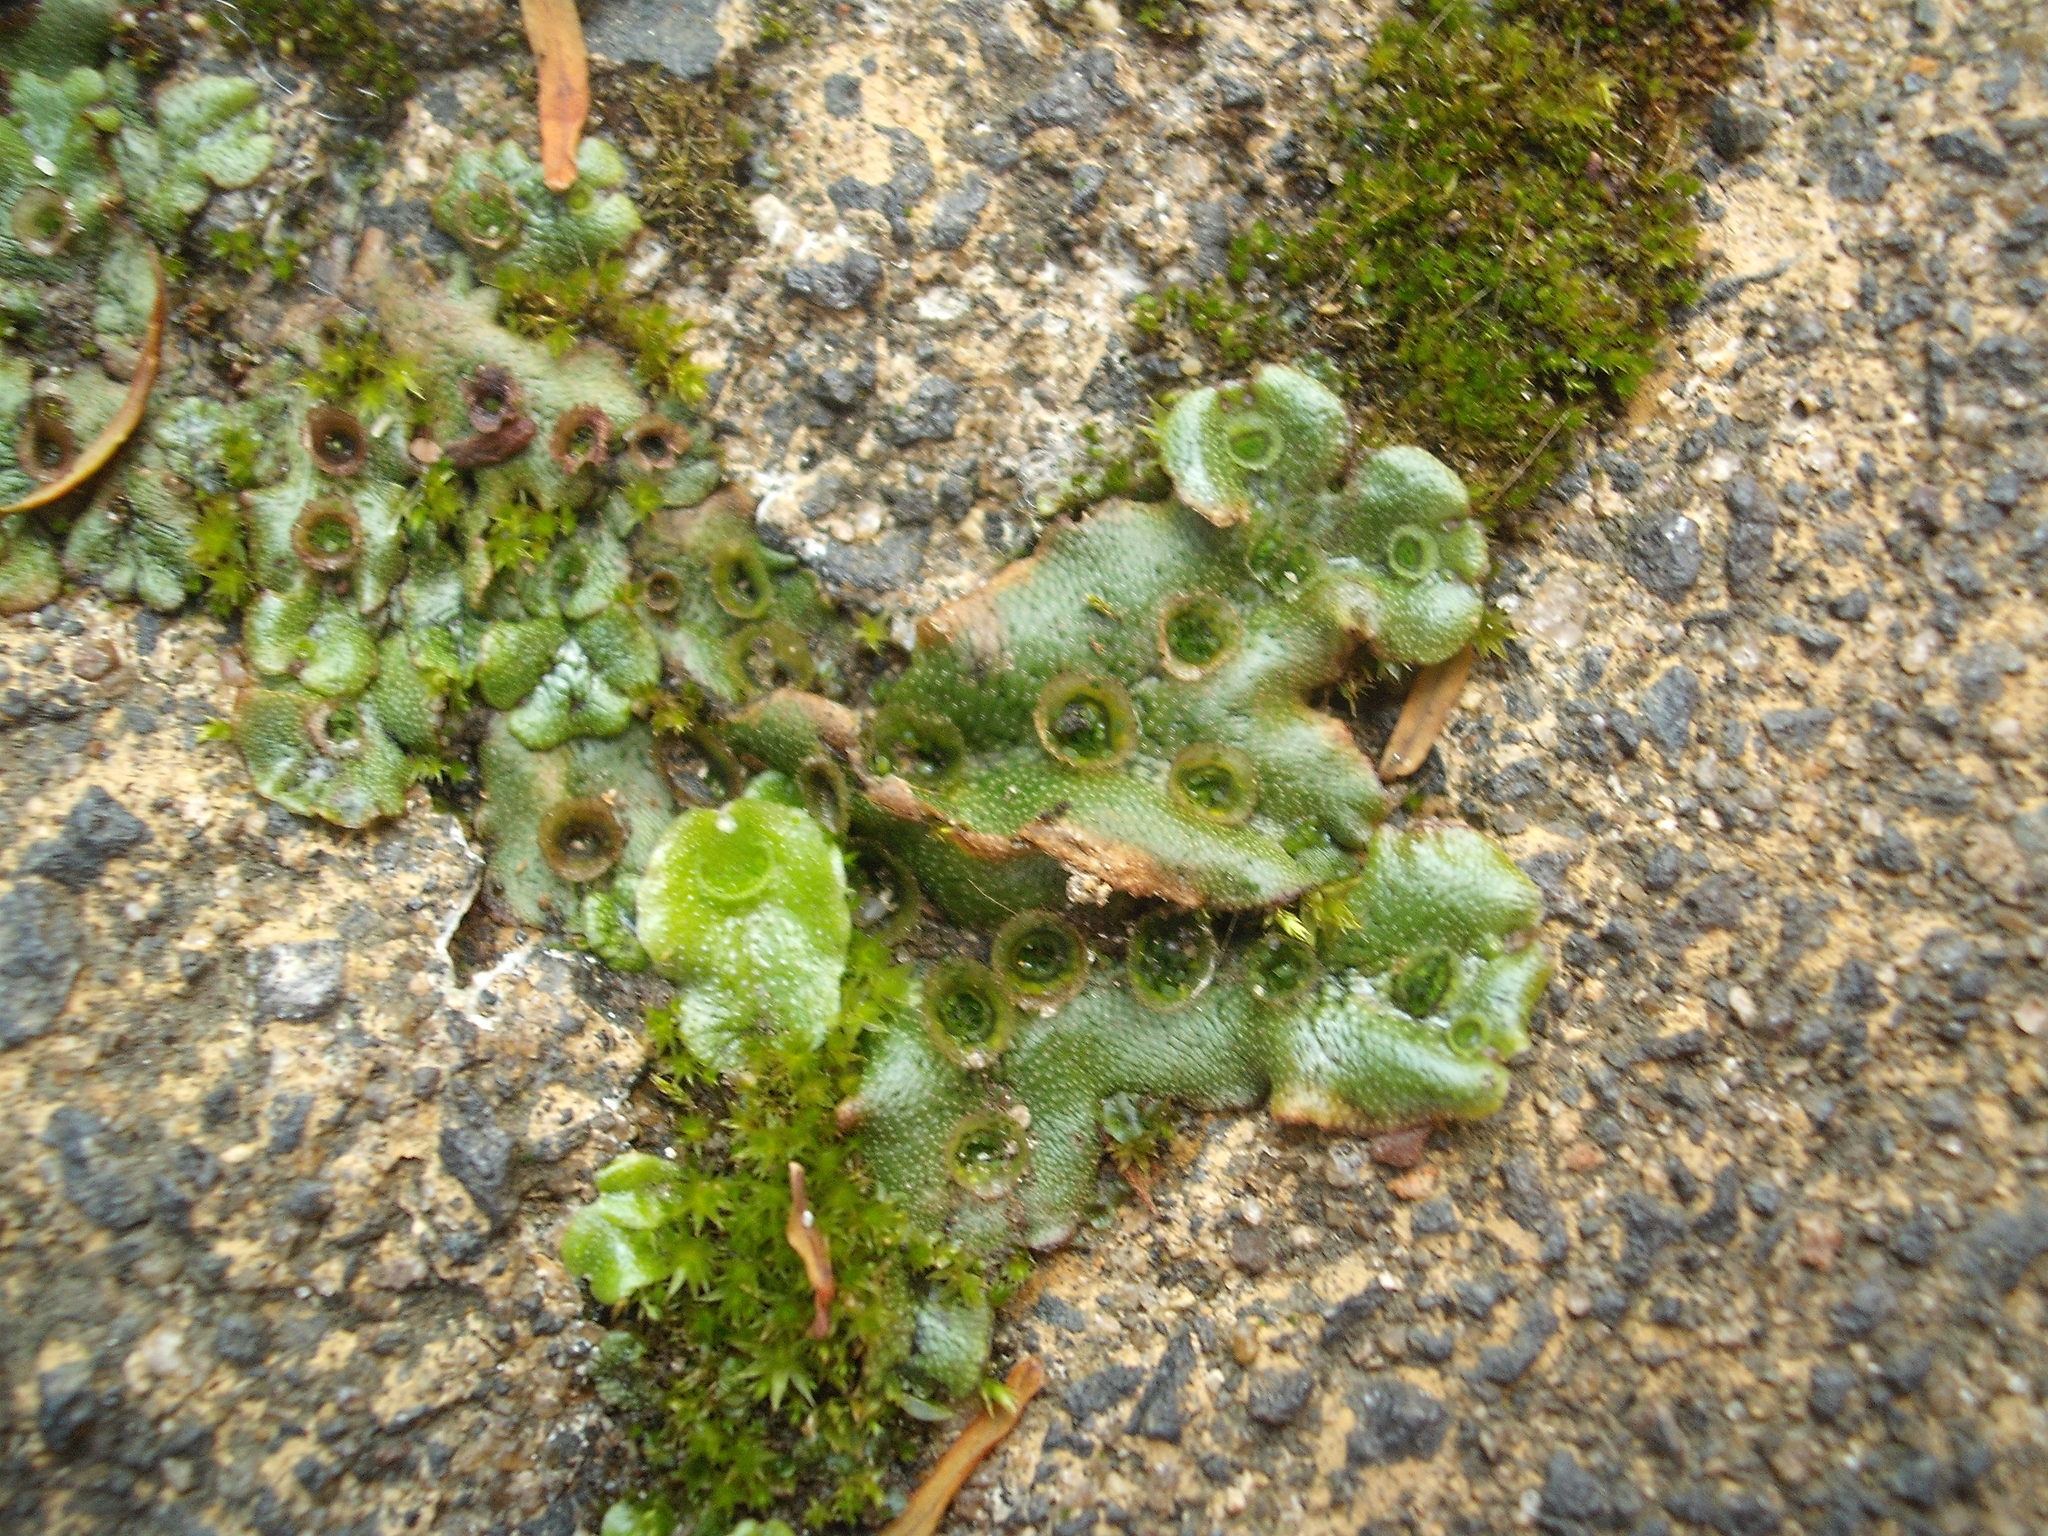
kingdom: Plantae
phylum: Marchantiophyta
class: Marchantiopsida
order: Marchantiales
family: Marchantiaceae
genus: Marchantia
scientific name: Marchantia polymorpha
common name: Common liverwort
